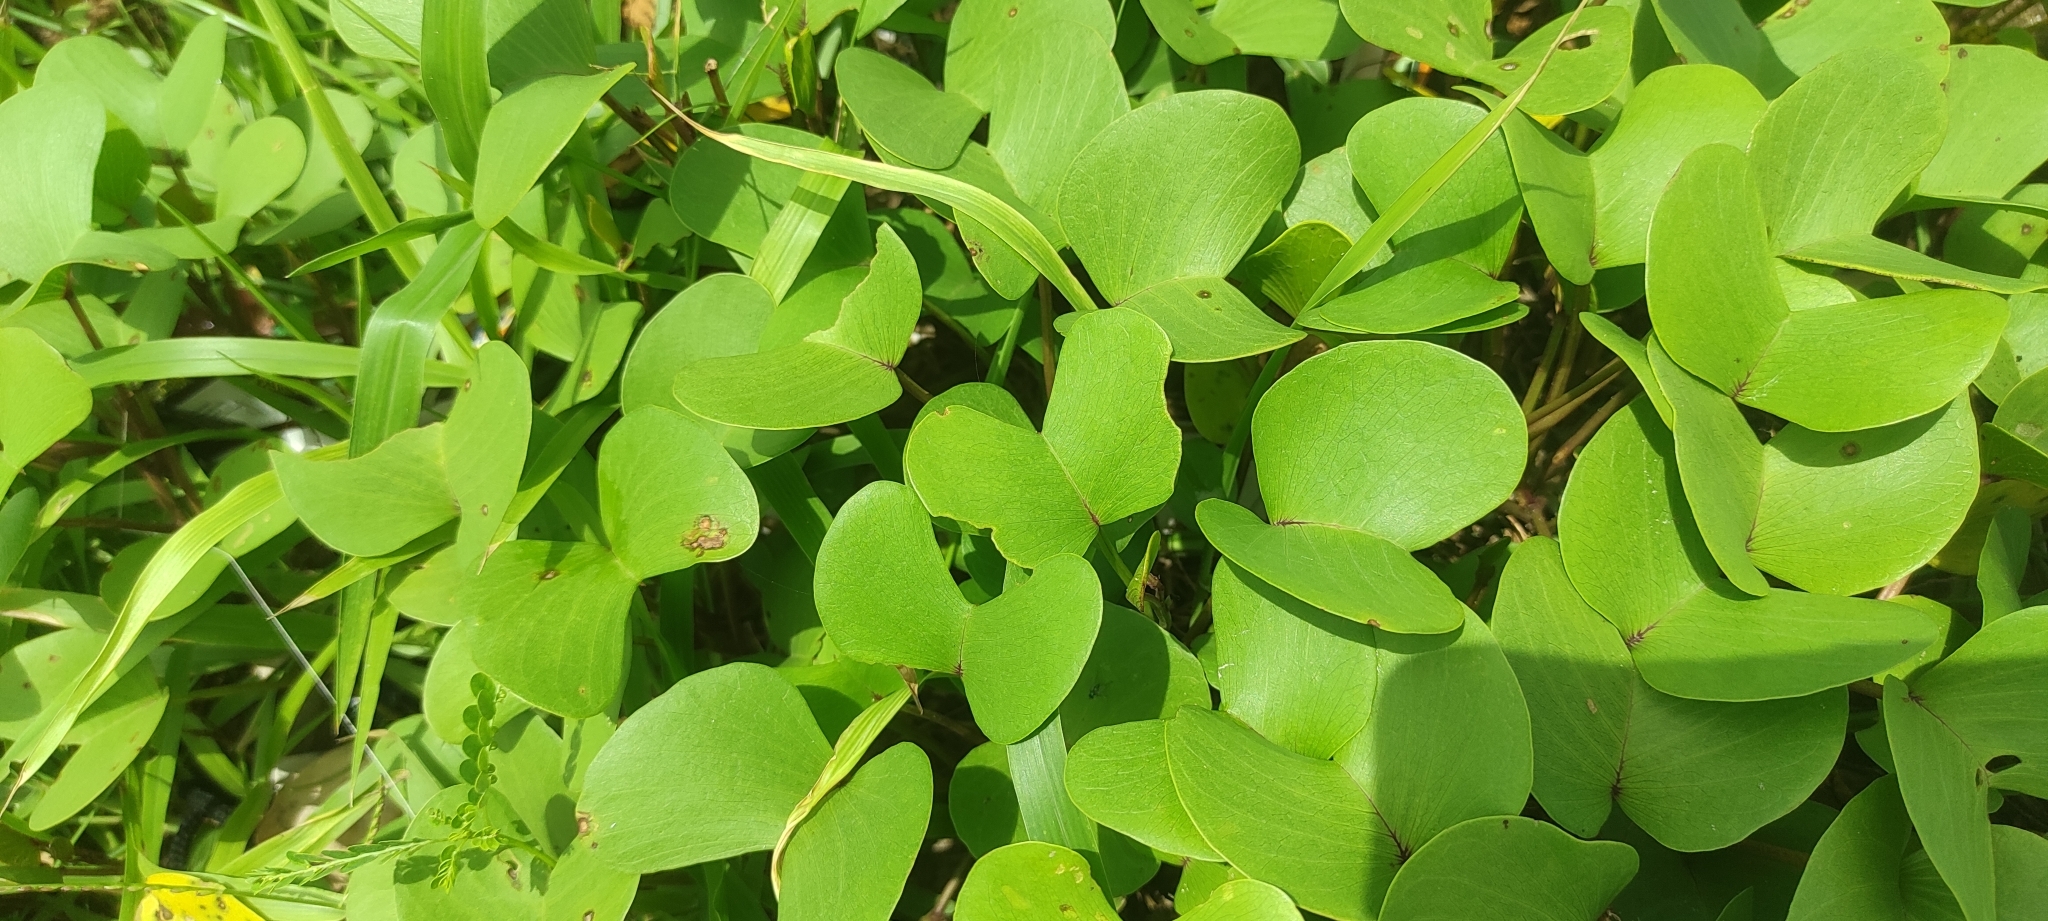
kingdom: Plantae
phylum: Tracheophyta
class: Magnoliopsida
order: Solanales
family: Convolvulaceae
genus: Ipomoea
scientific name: Ipomoea pes-caprae
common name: Beach morning glory
